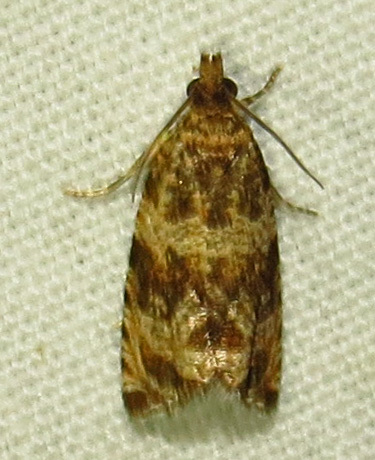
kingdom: Animalia
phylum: Arthropoda
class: Insecta
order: Lepidoptera
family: Tortricidae
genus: Celypha
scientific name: Celypha cespitana
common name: Thyme marble
